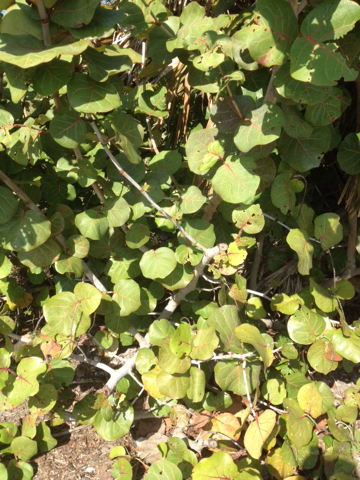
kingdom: Plantae
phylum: Tracheophyta
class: Magnoliopsida
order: Caryophyllales
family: Polygonaceae
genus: Coccoloba
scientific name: Coccoloba uvifera
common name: Seagrape
